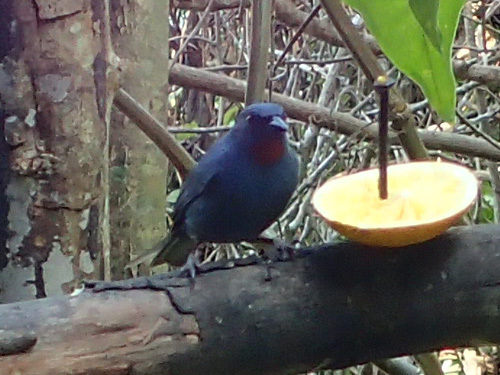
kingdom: Animalia
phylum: Chordata
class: Aves
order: Passeriformes
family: Thraupidae
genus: Euneornis
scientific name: Euneornis campestris
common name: Orangequit
